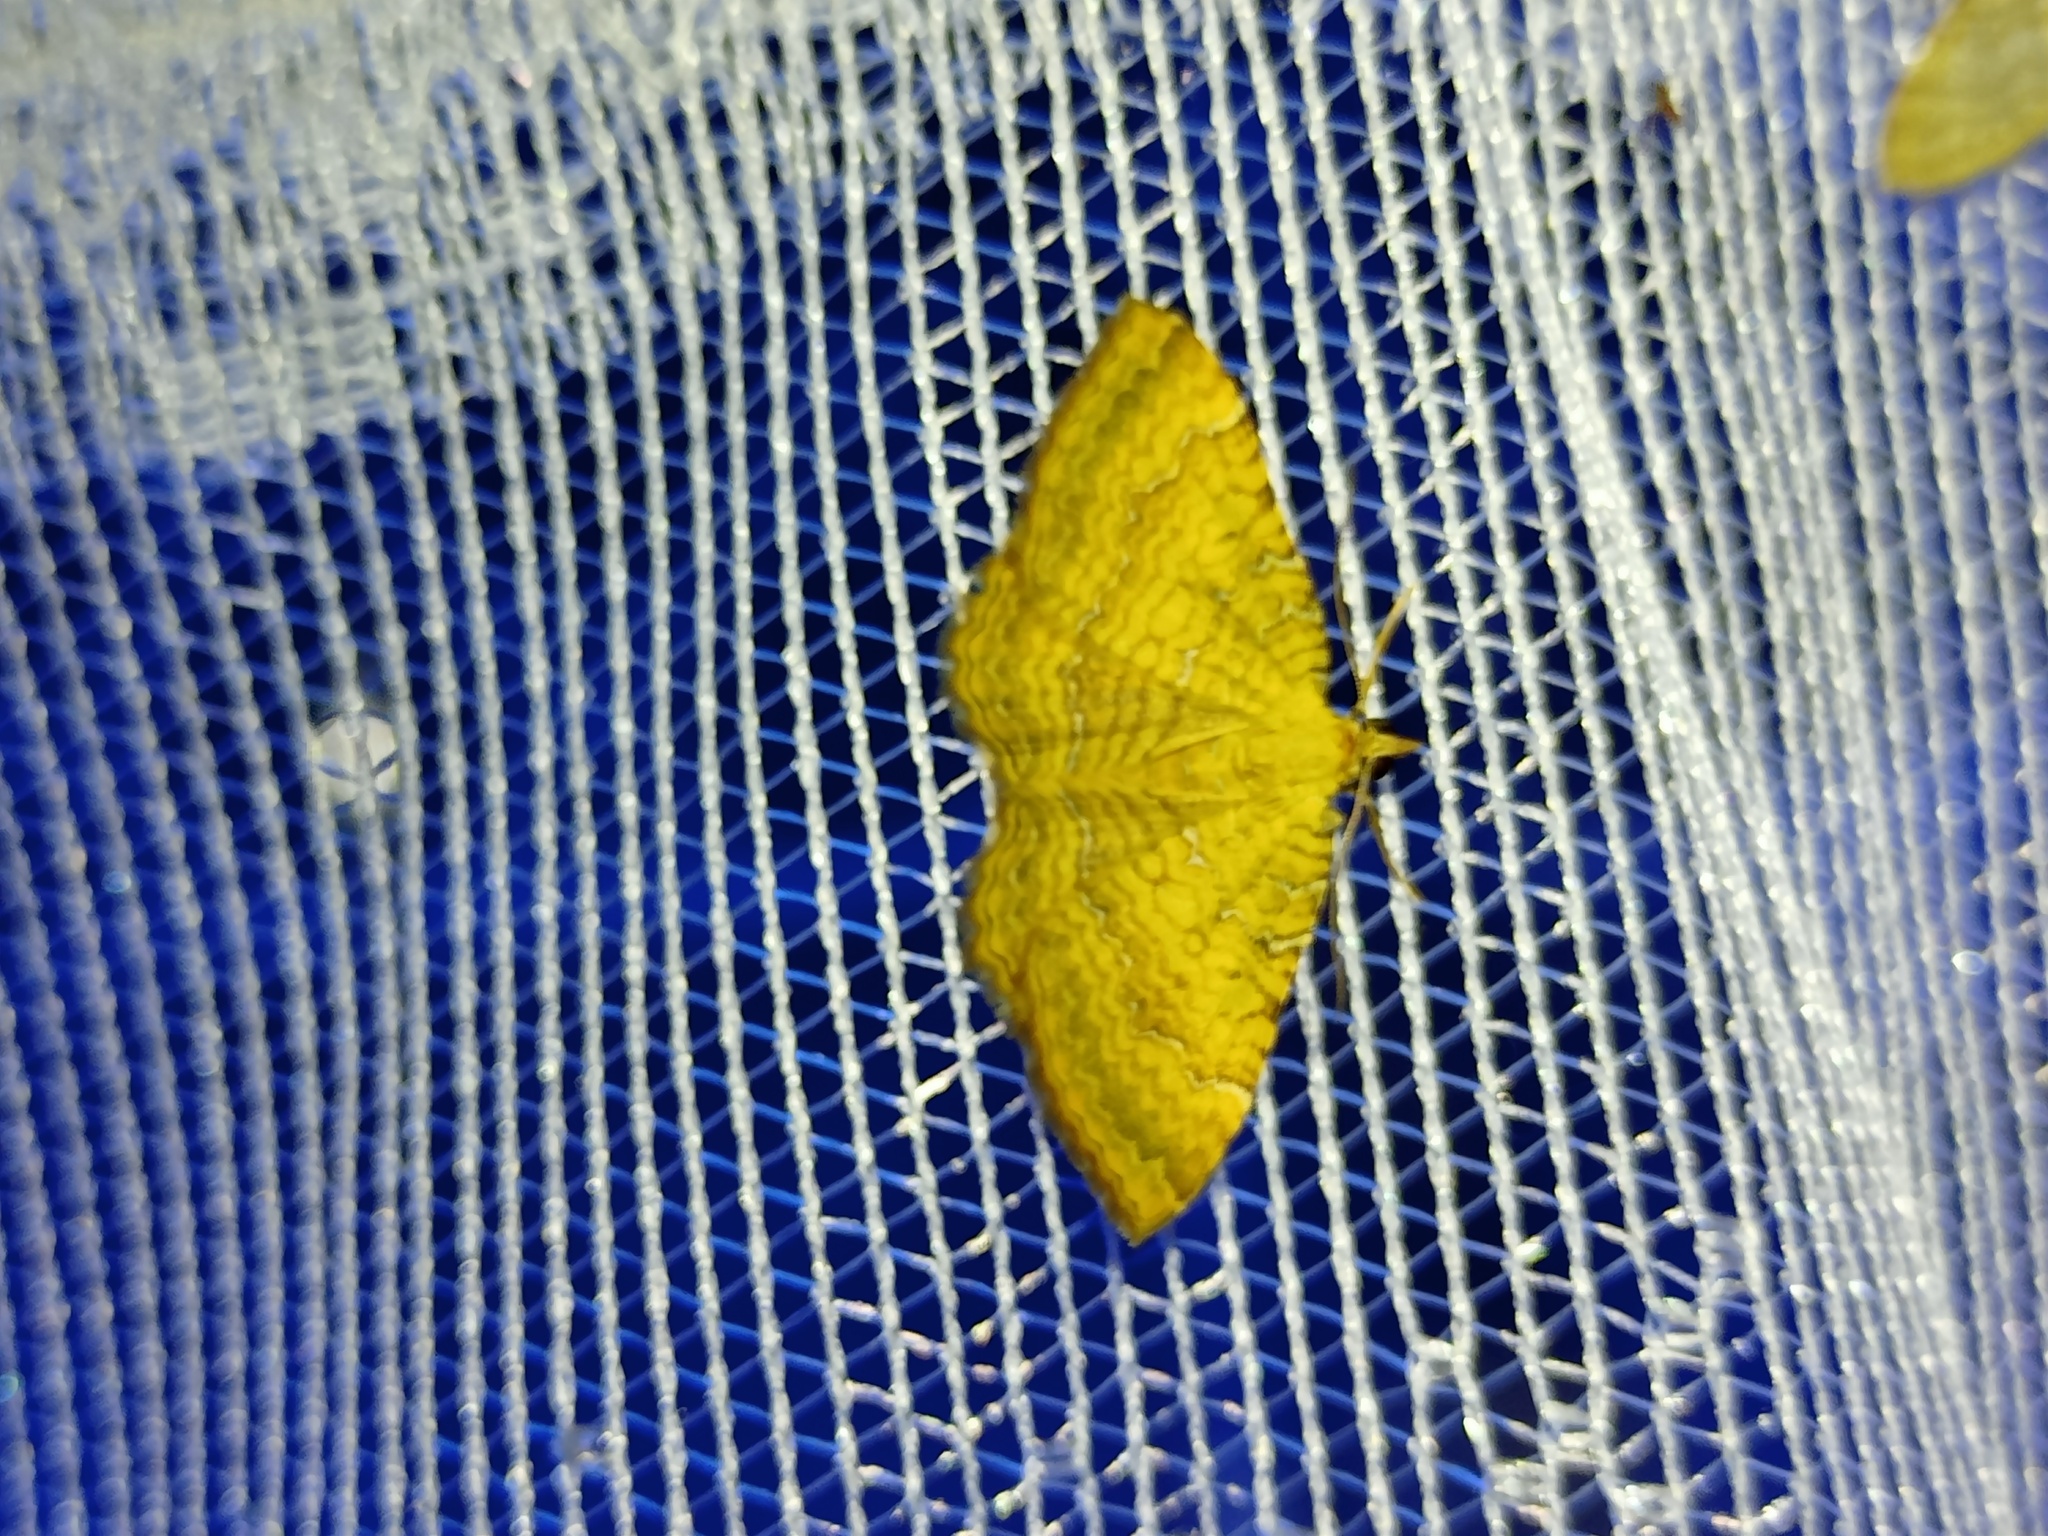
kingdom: Animalia
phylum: Arthropoda
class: Insecta
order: Lepidoptera
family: Geometridae
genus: Camptogramma
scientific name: Camptogramma bilineata
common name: Yellow shell
